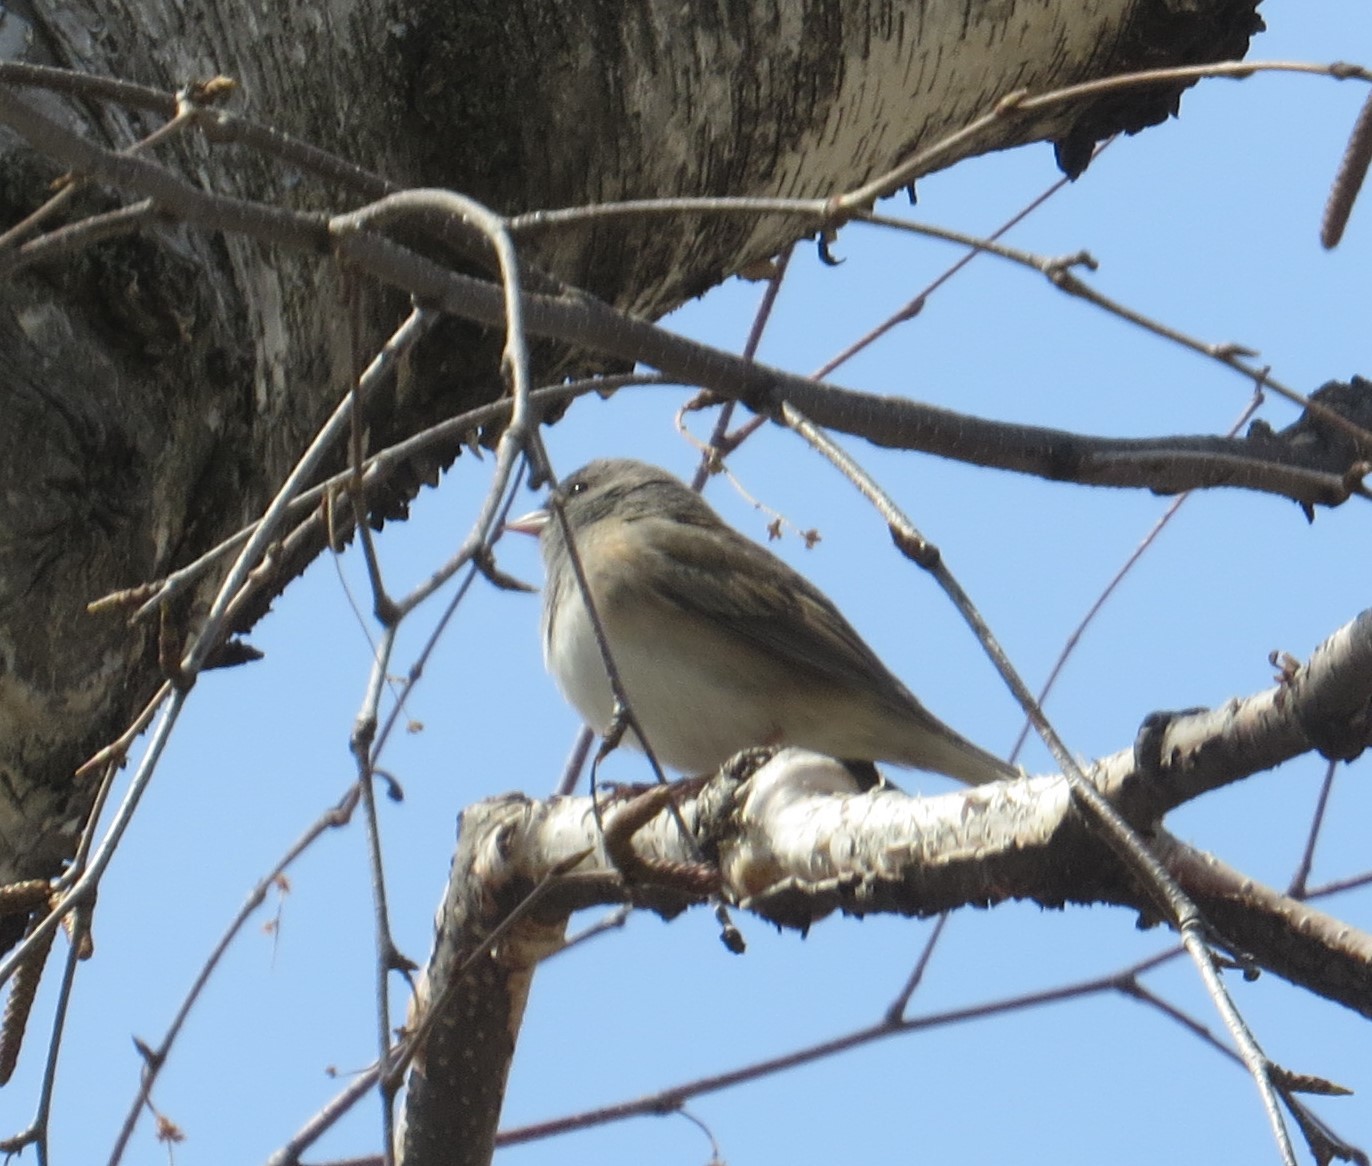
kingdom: Animalia
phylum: Chordata
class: Aves
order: Passeriformes
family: Passerellidae
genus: Junco
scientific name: Junco hyemalis
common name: Dark-eyed junco
